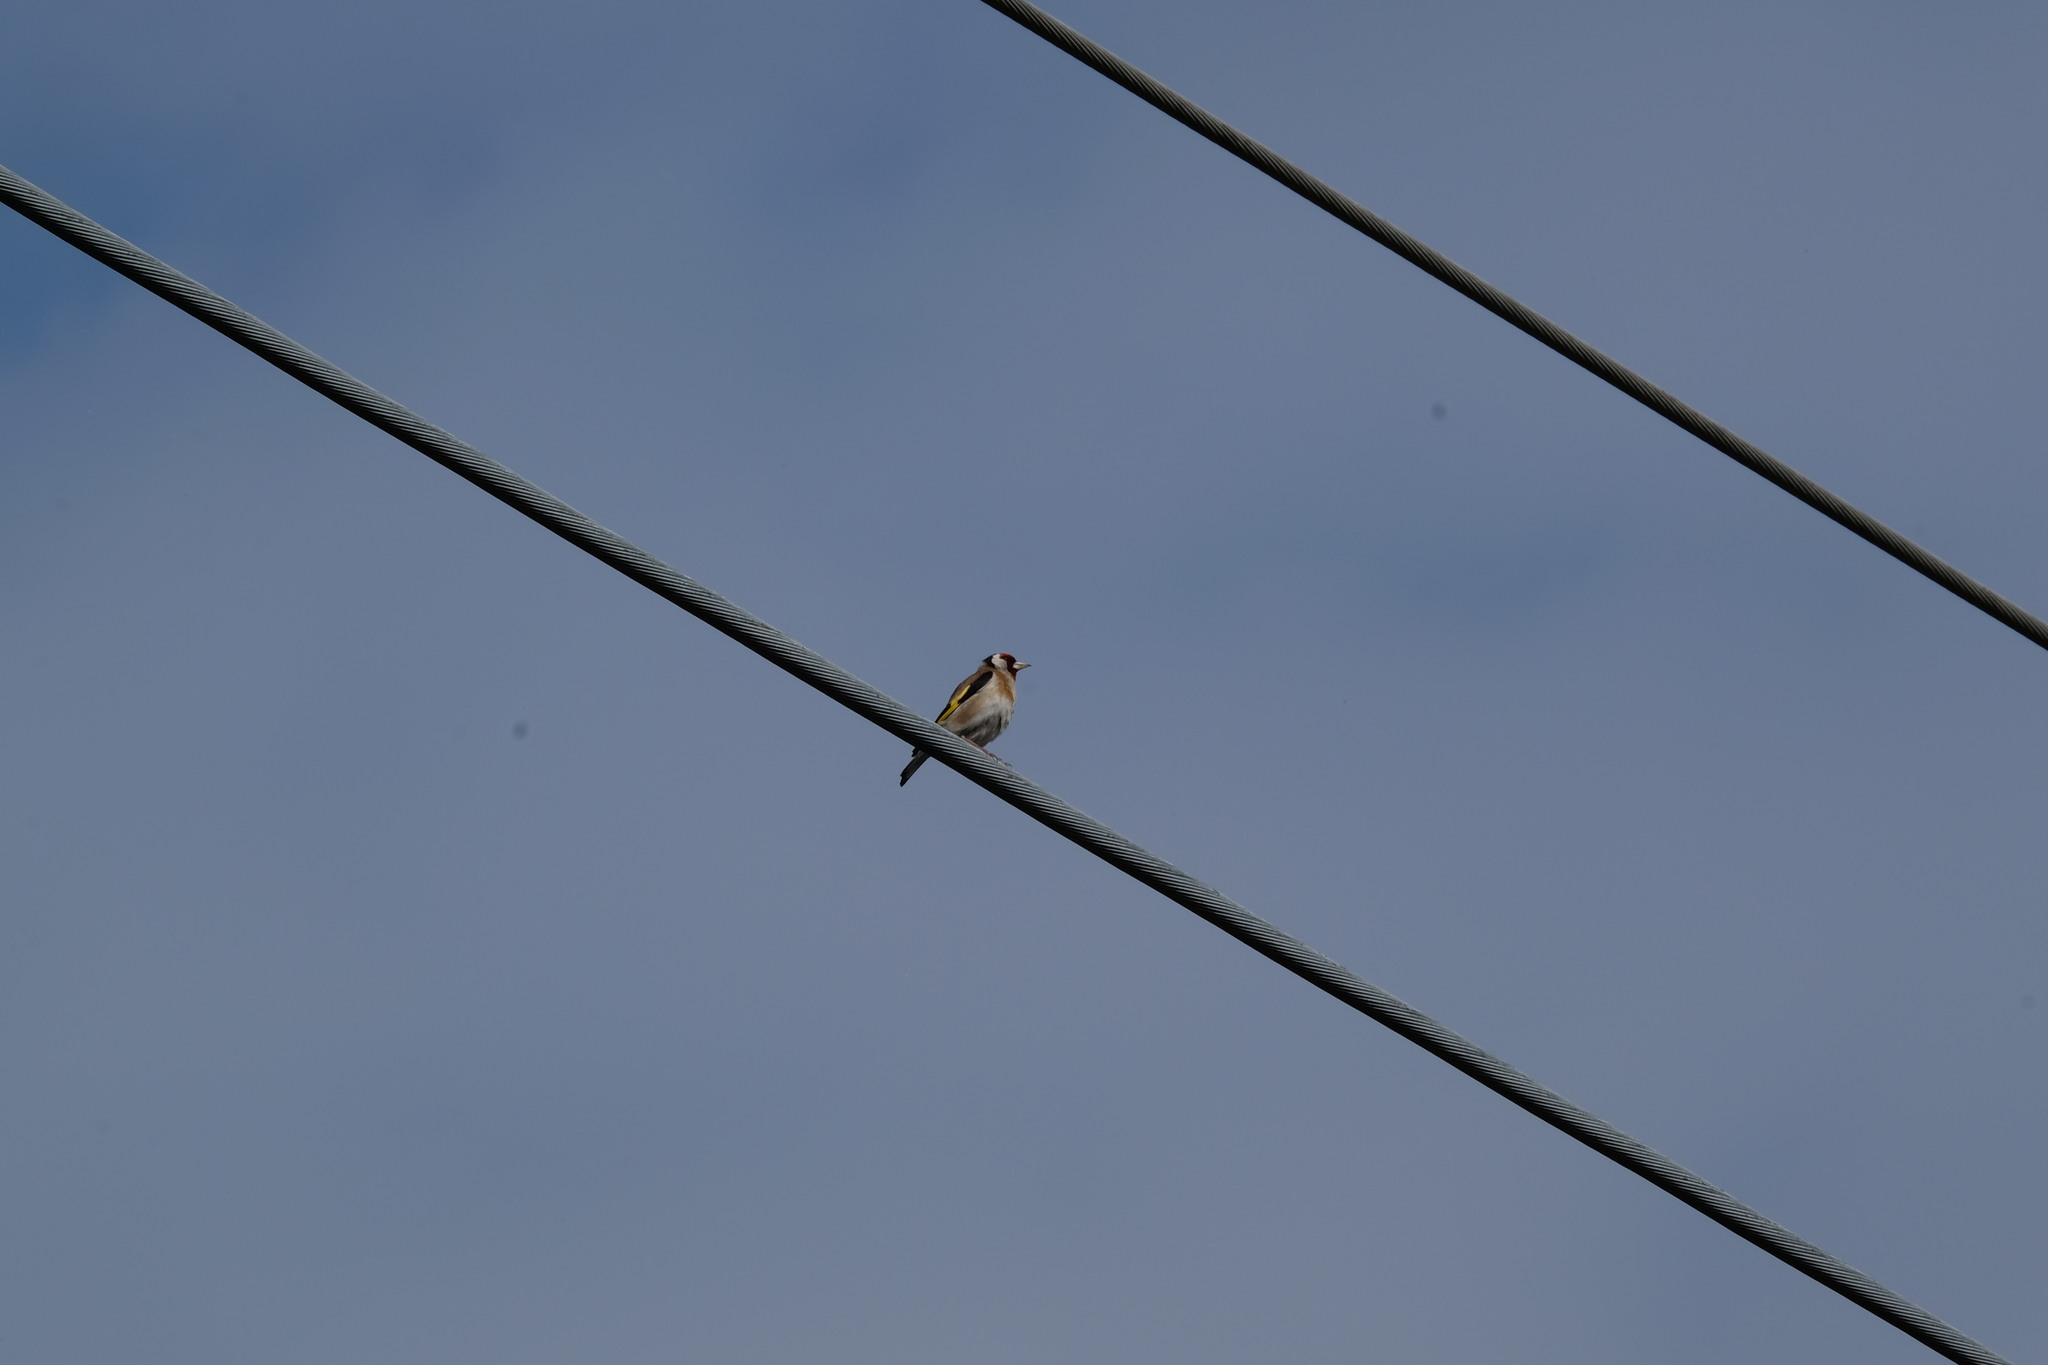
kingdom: Animalia
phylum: Chordata
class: Aves
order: Passeriformes
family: Fringillidae
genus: Carduelis
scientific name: Carduelis carduelis
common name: European goldfinch
